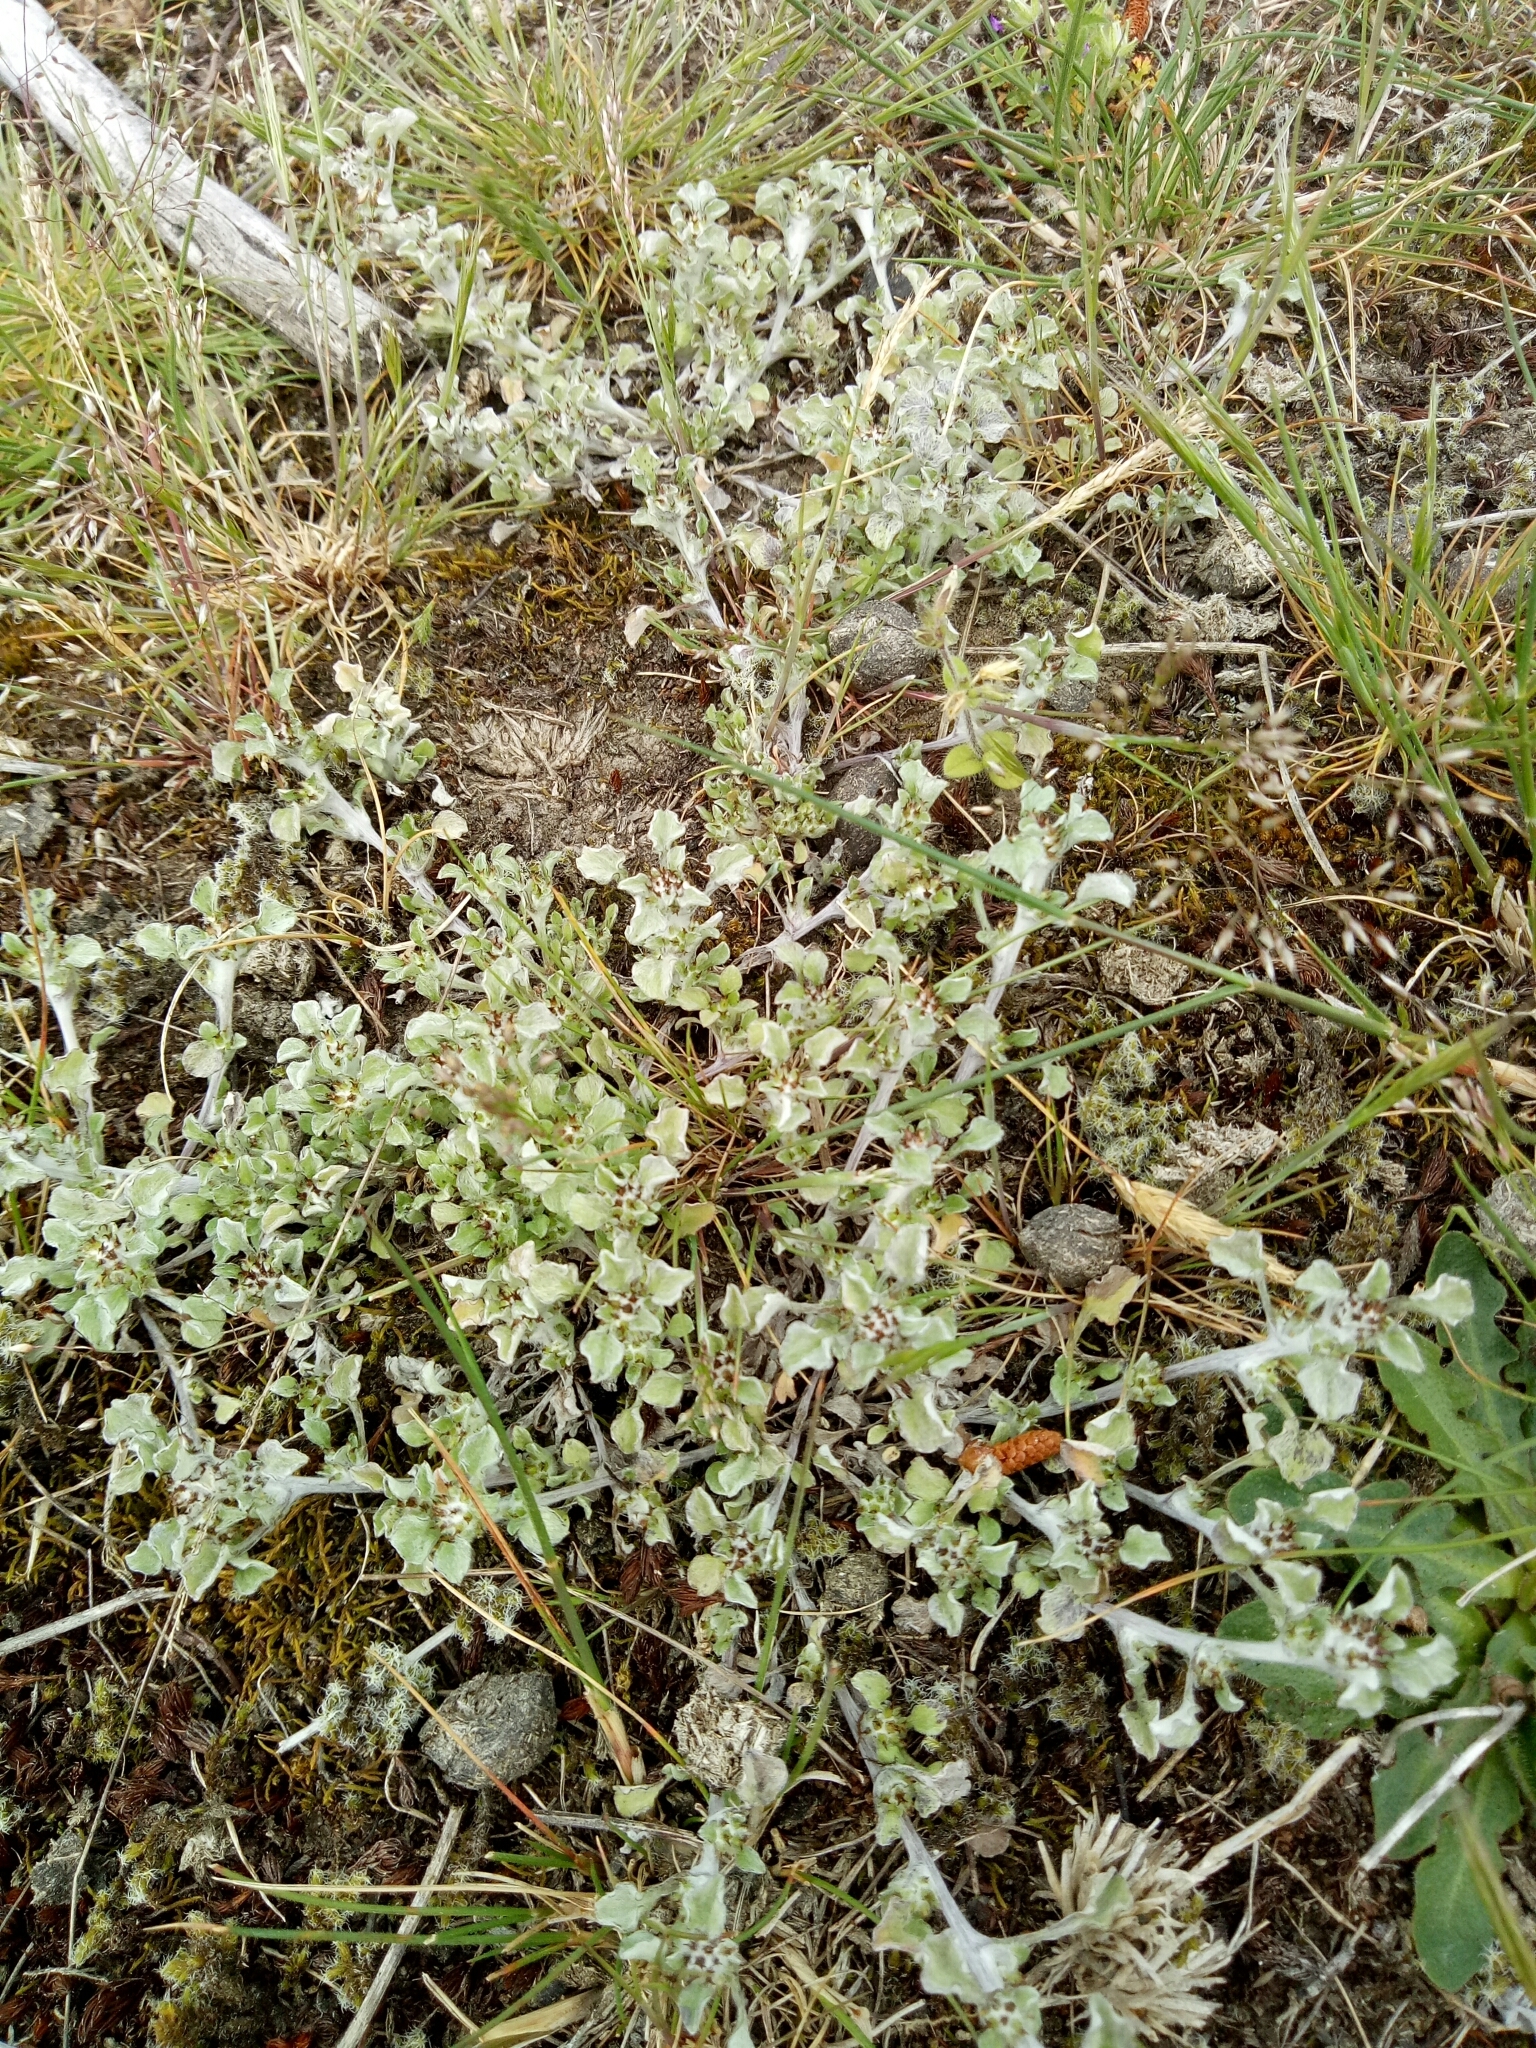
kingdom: Plantae
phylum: Tracheophyta
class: Magnoliopsida
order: Asterales
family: Asteraceae
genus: Stuartina
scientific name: Stuartina muelleri
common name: Spoon-leaved cudweed
